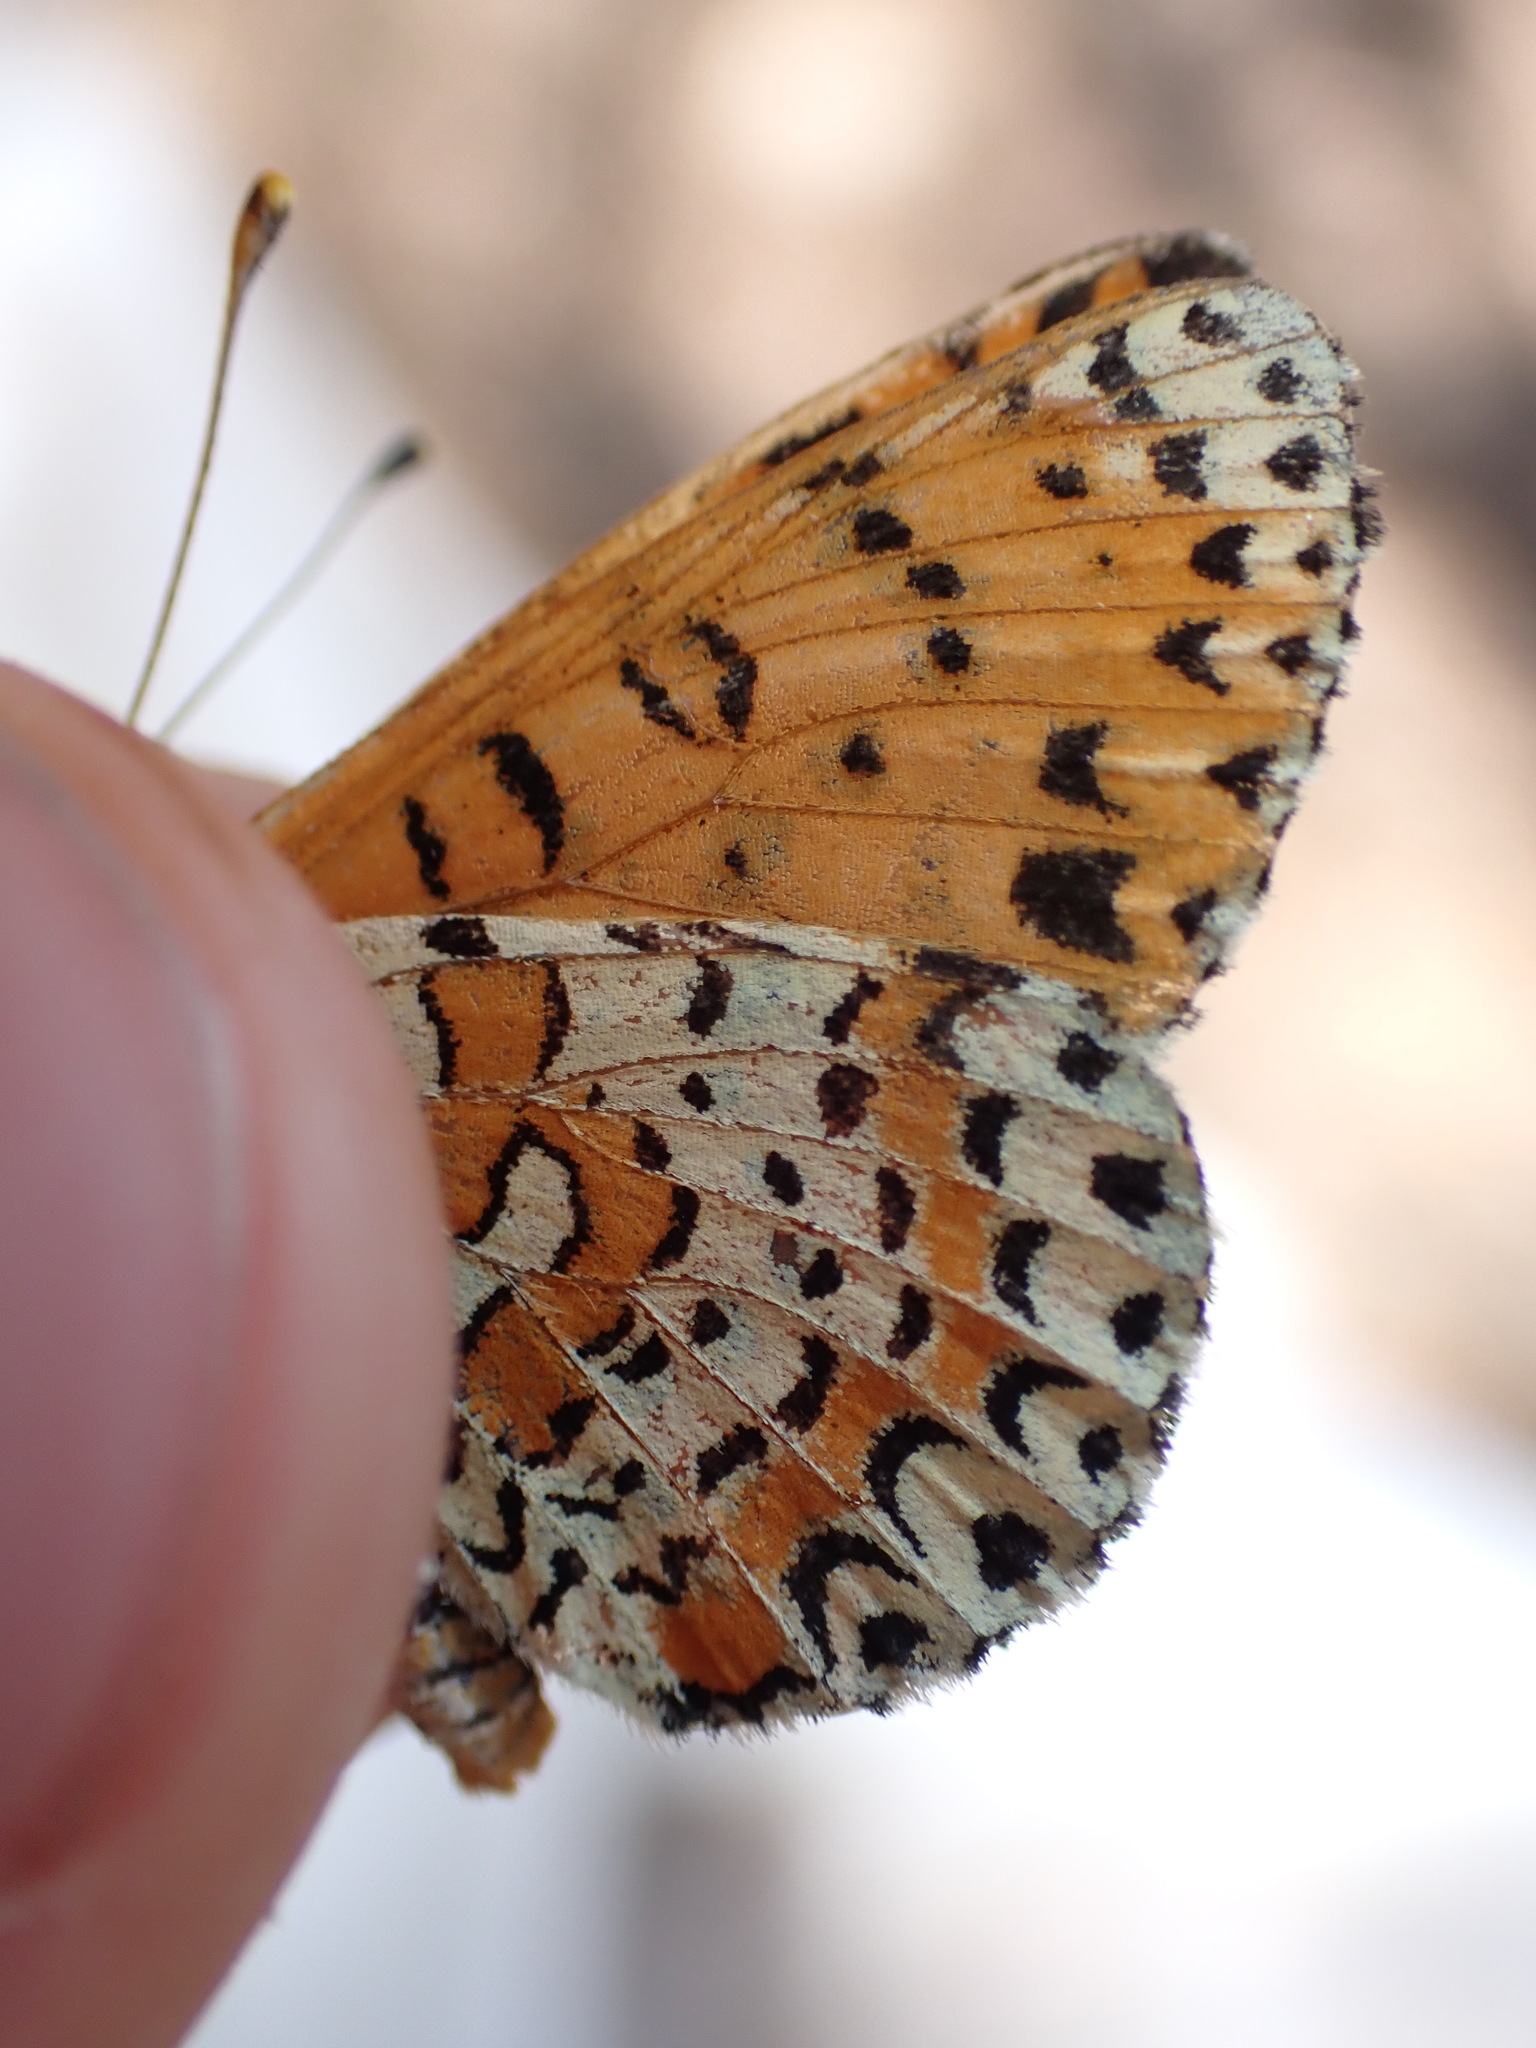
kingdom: Animalia
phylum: Arthropoda
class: Insecta
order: Lepidoptera
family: Nymphalidae
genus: Melitaea
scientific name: Melitaea didyma
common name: Spotted fritillary
